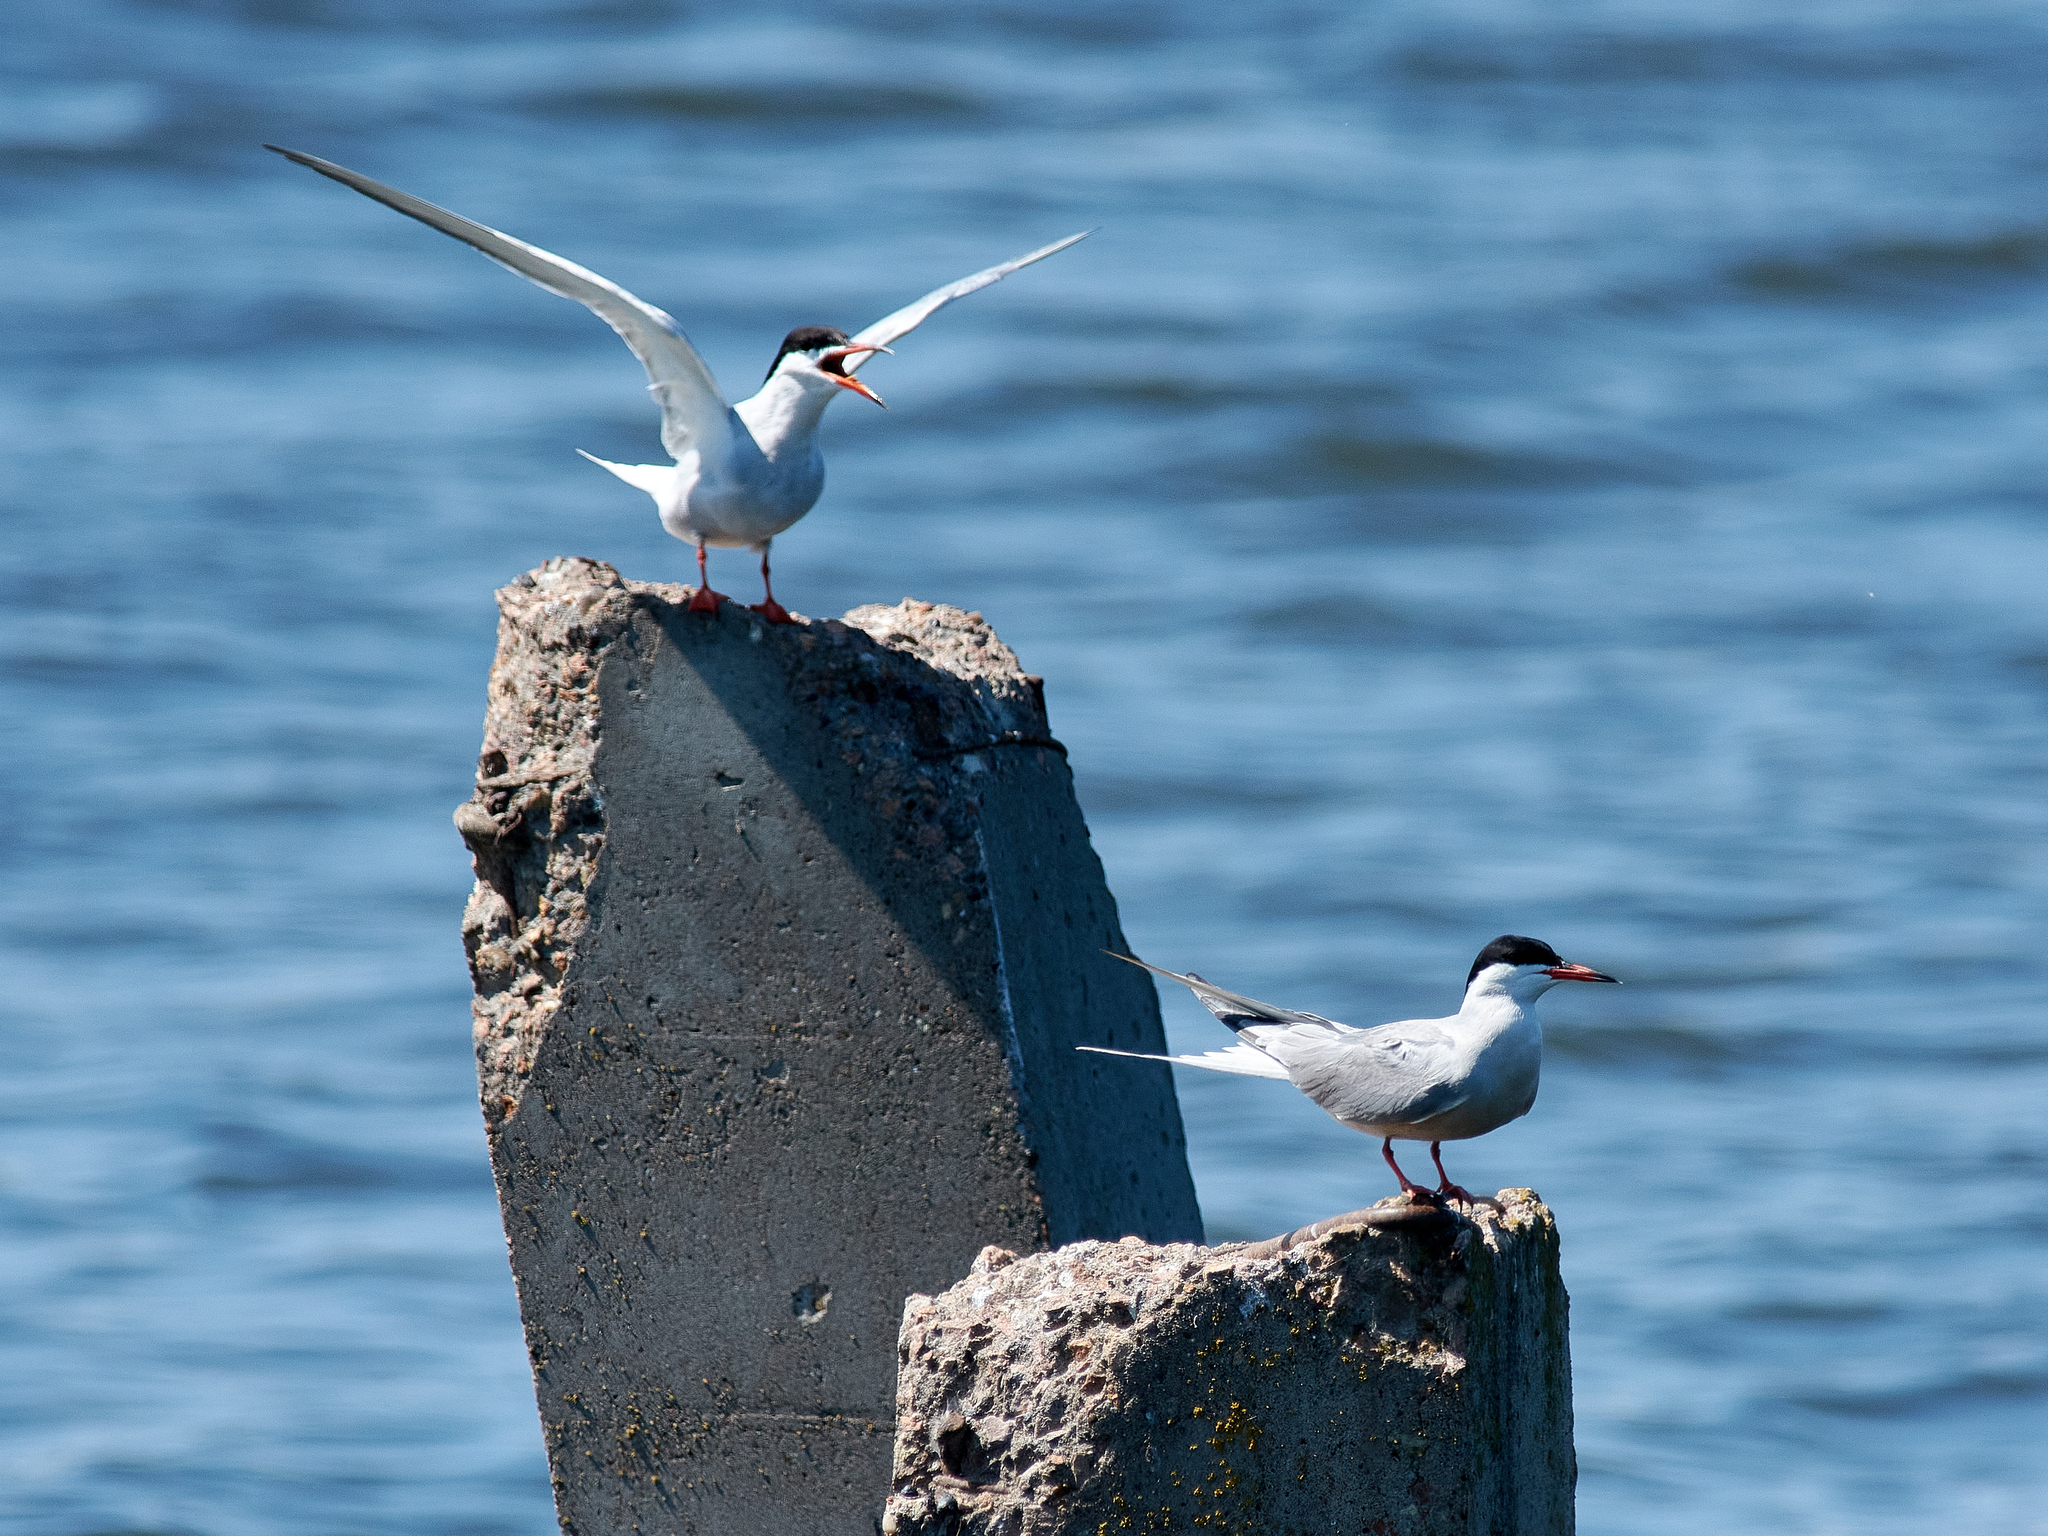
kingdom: Animalia
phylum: Chordata
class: Aves
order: Charadriiformes
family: Laridae
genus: Sterna
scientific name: Sterna hirundo
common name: Common tern
